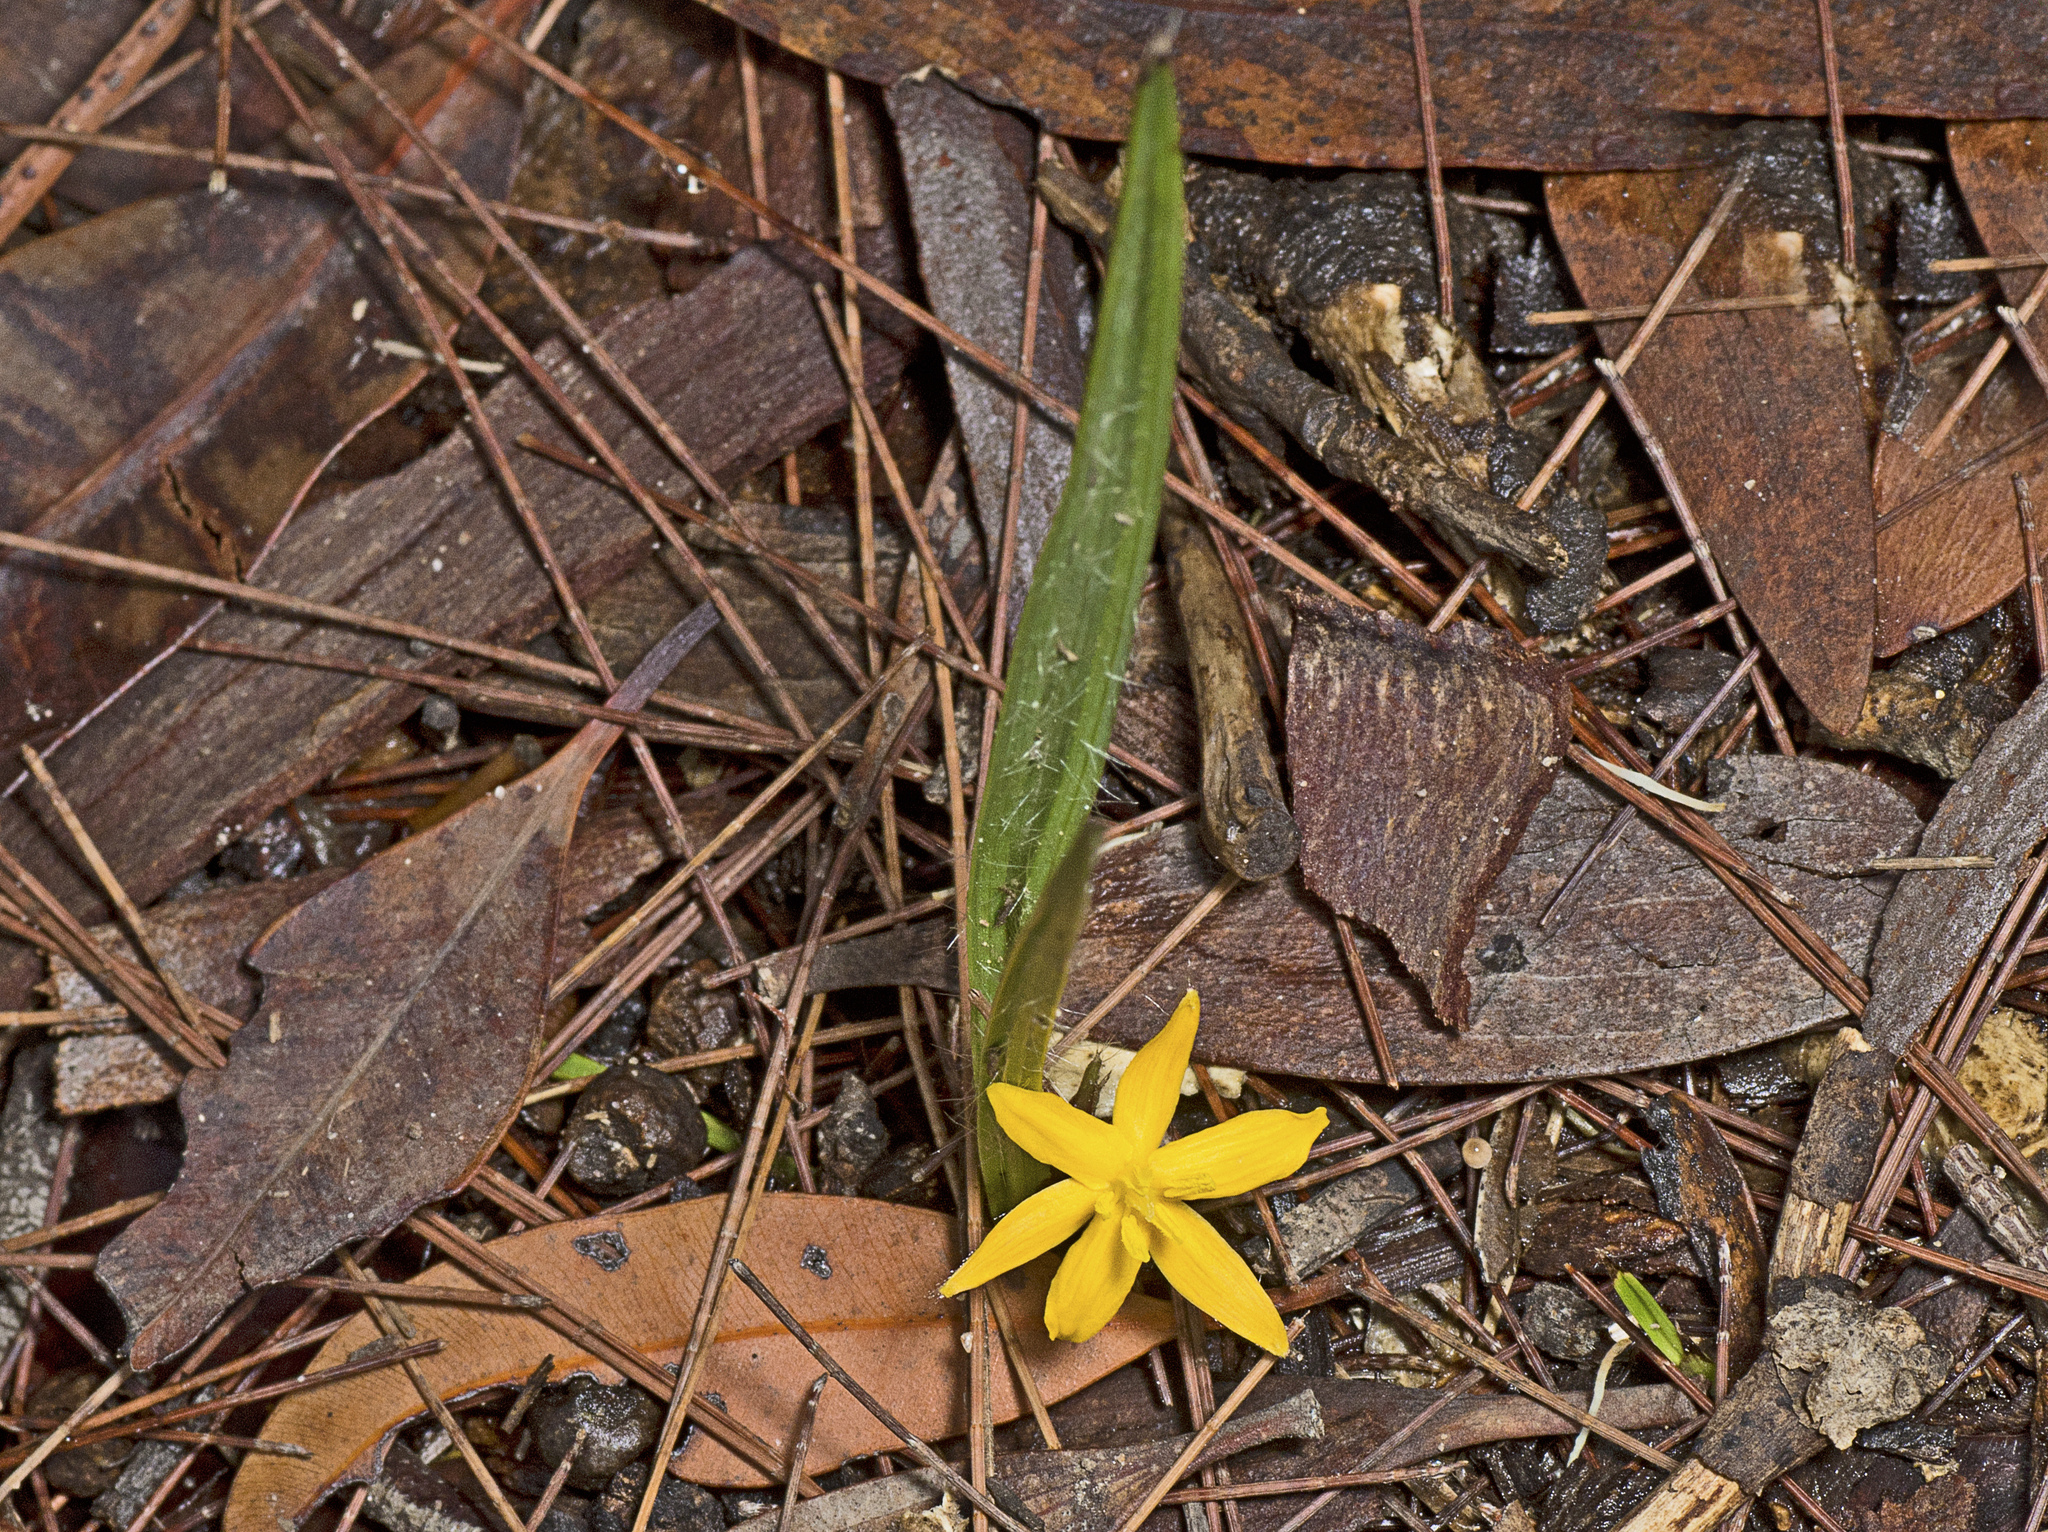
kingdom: Plantae
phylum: Tracheophyta
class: Liliopsida
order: Asparagales
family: Hypoxidaceae
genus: Curculigo
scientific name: Curculigo ensifolia
